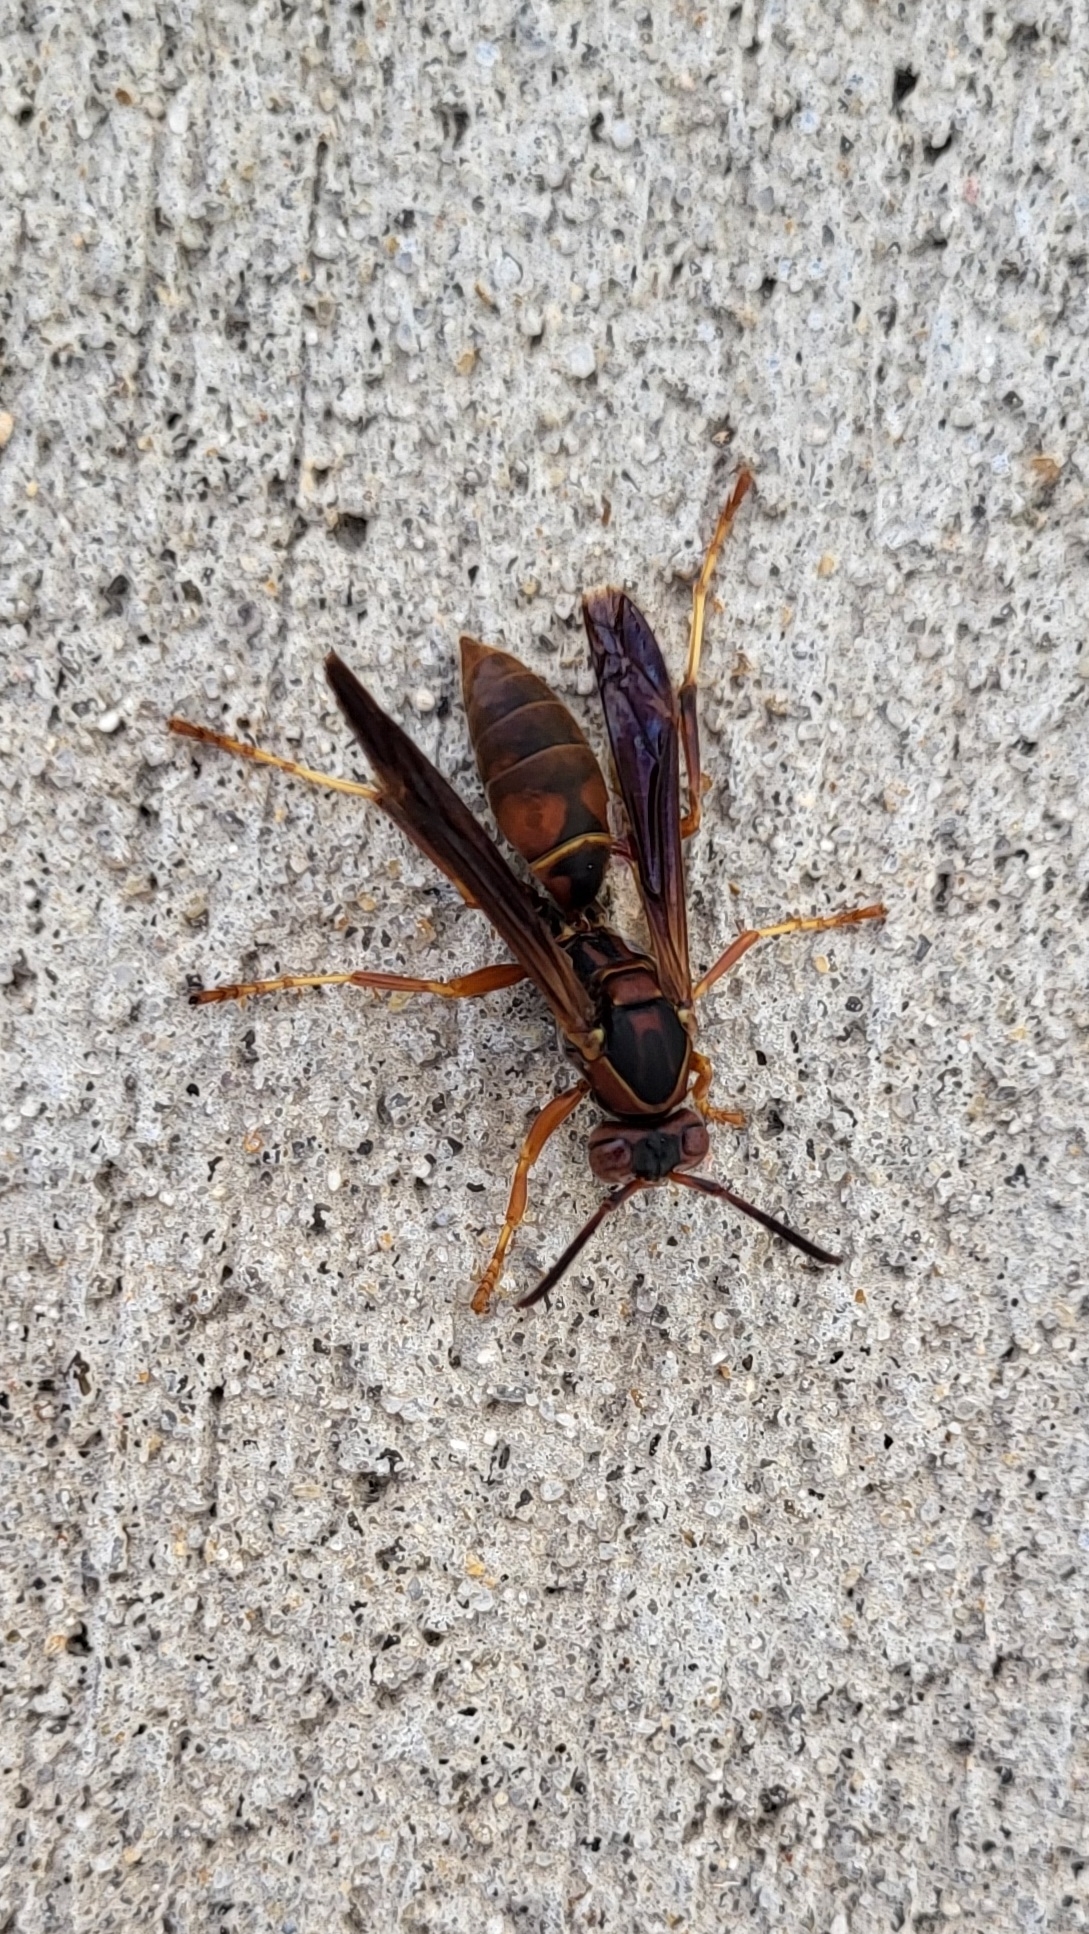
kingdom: Animalia
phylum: Arthropoda
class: Insecta
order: Hymenoptera
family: Eumenidae
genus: Polistes
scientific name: Polistes fuscatus
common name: Dark paper wasp
